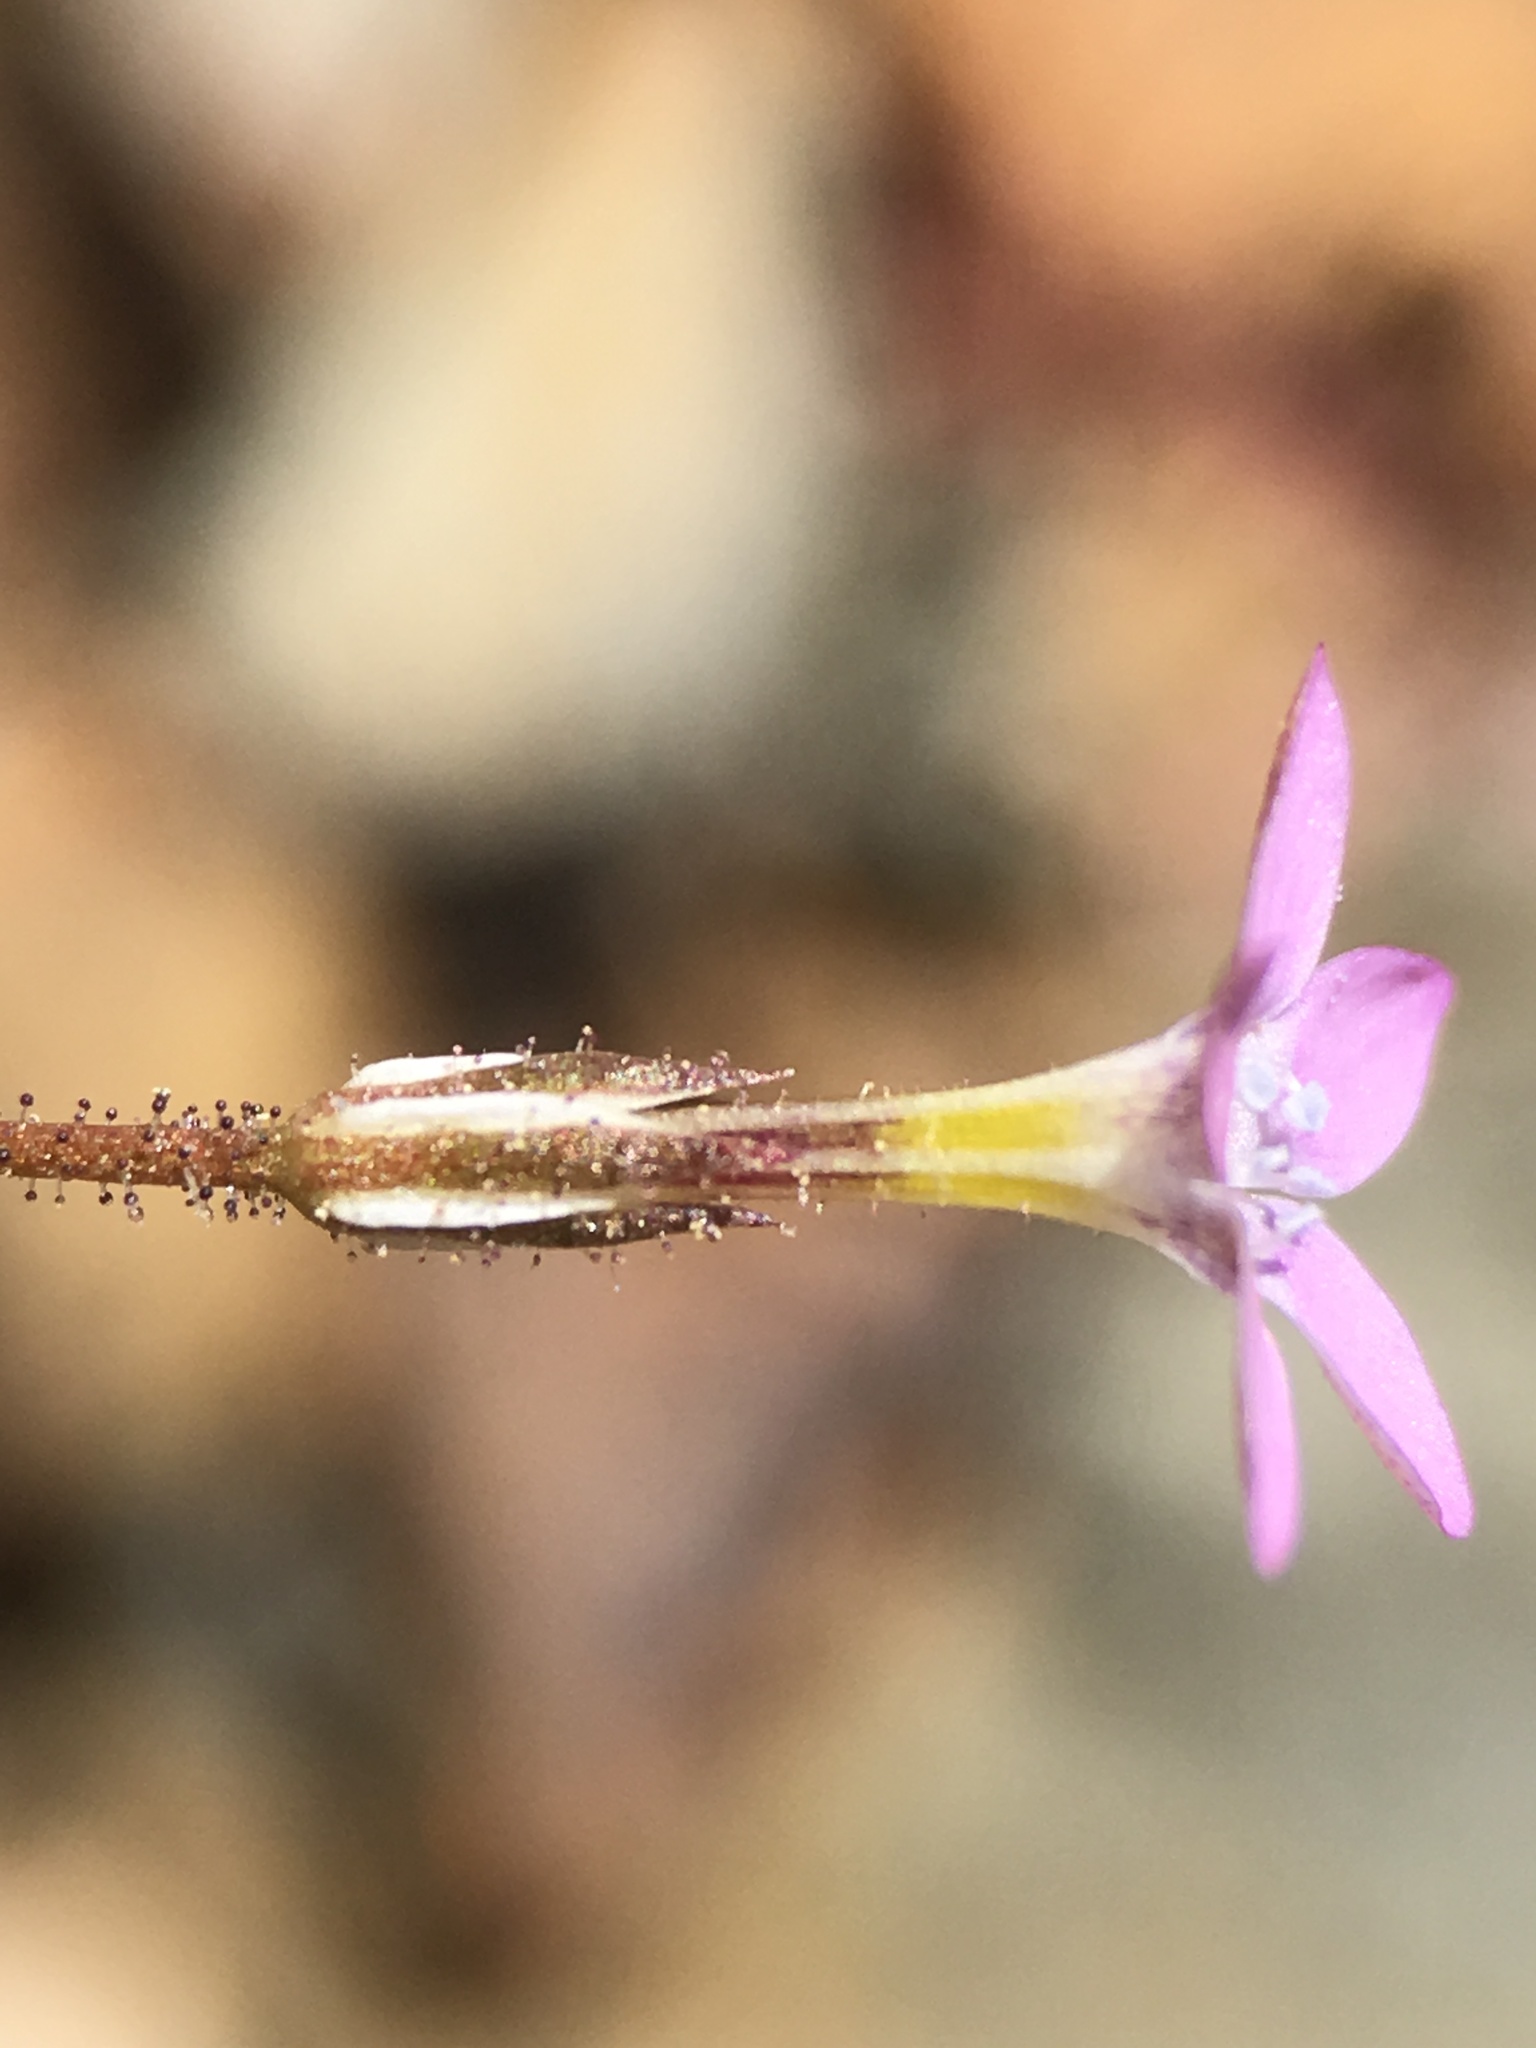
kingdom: Plantae
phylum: Tracheophyta
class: Magnoliopsida
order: Ericales
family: Polemoniaceae
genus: Gilia
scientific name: Gilia ophthalmoides
